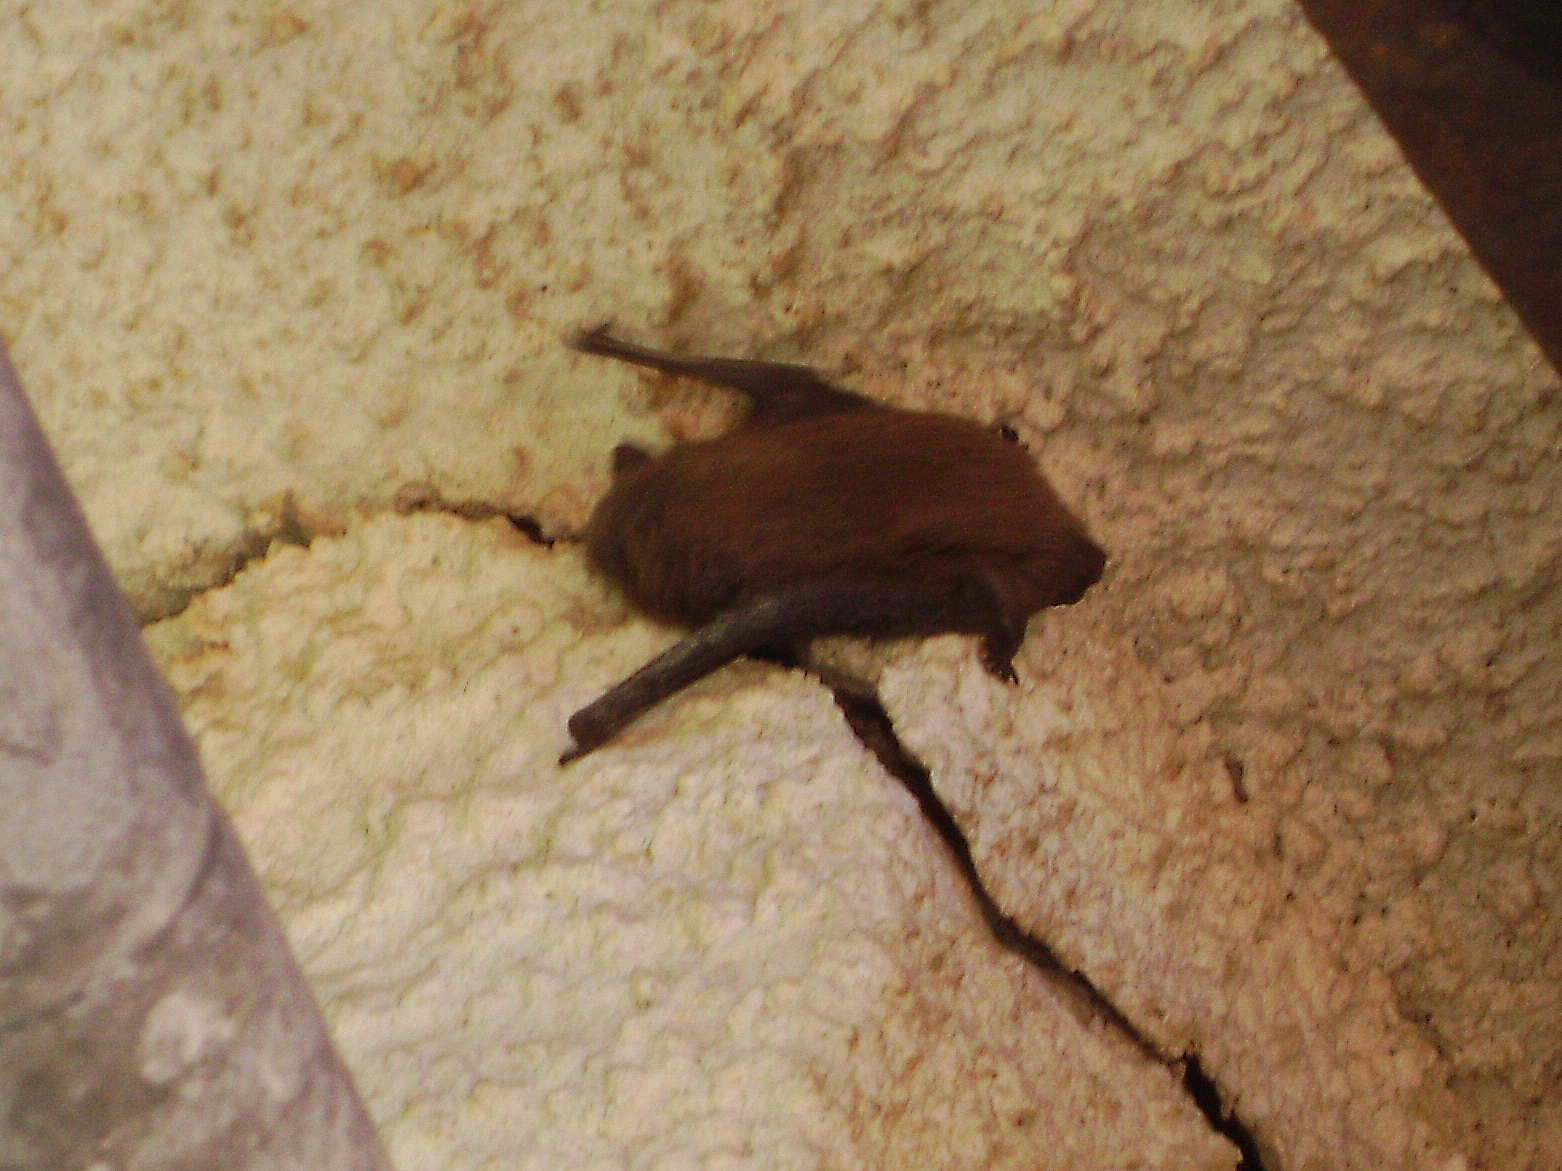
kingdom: Animalia
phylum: Chordata
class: Mammalia
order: Chiroptera
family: Vespertilionidae
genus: Pipistrellus
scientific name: Pipistrellus
